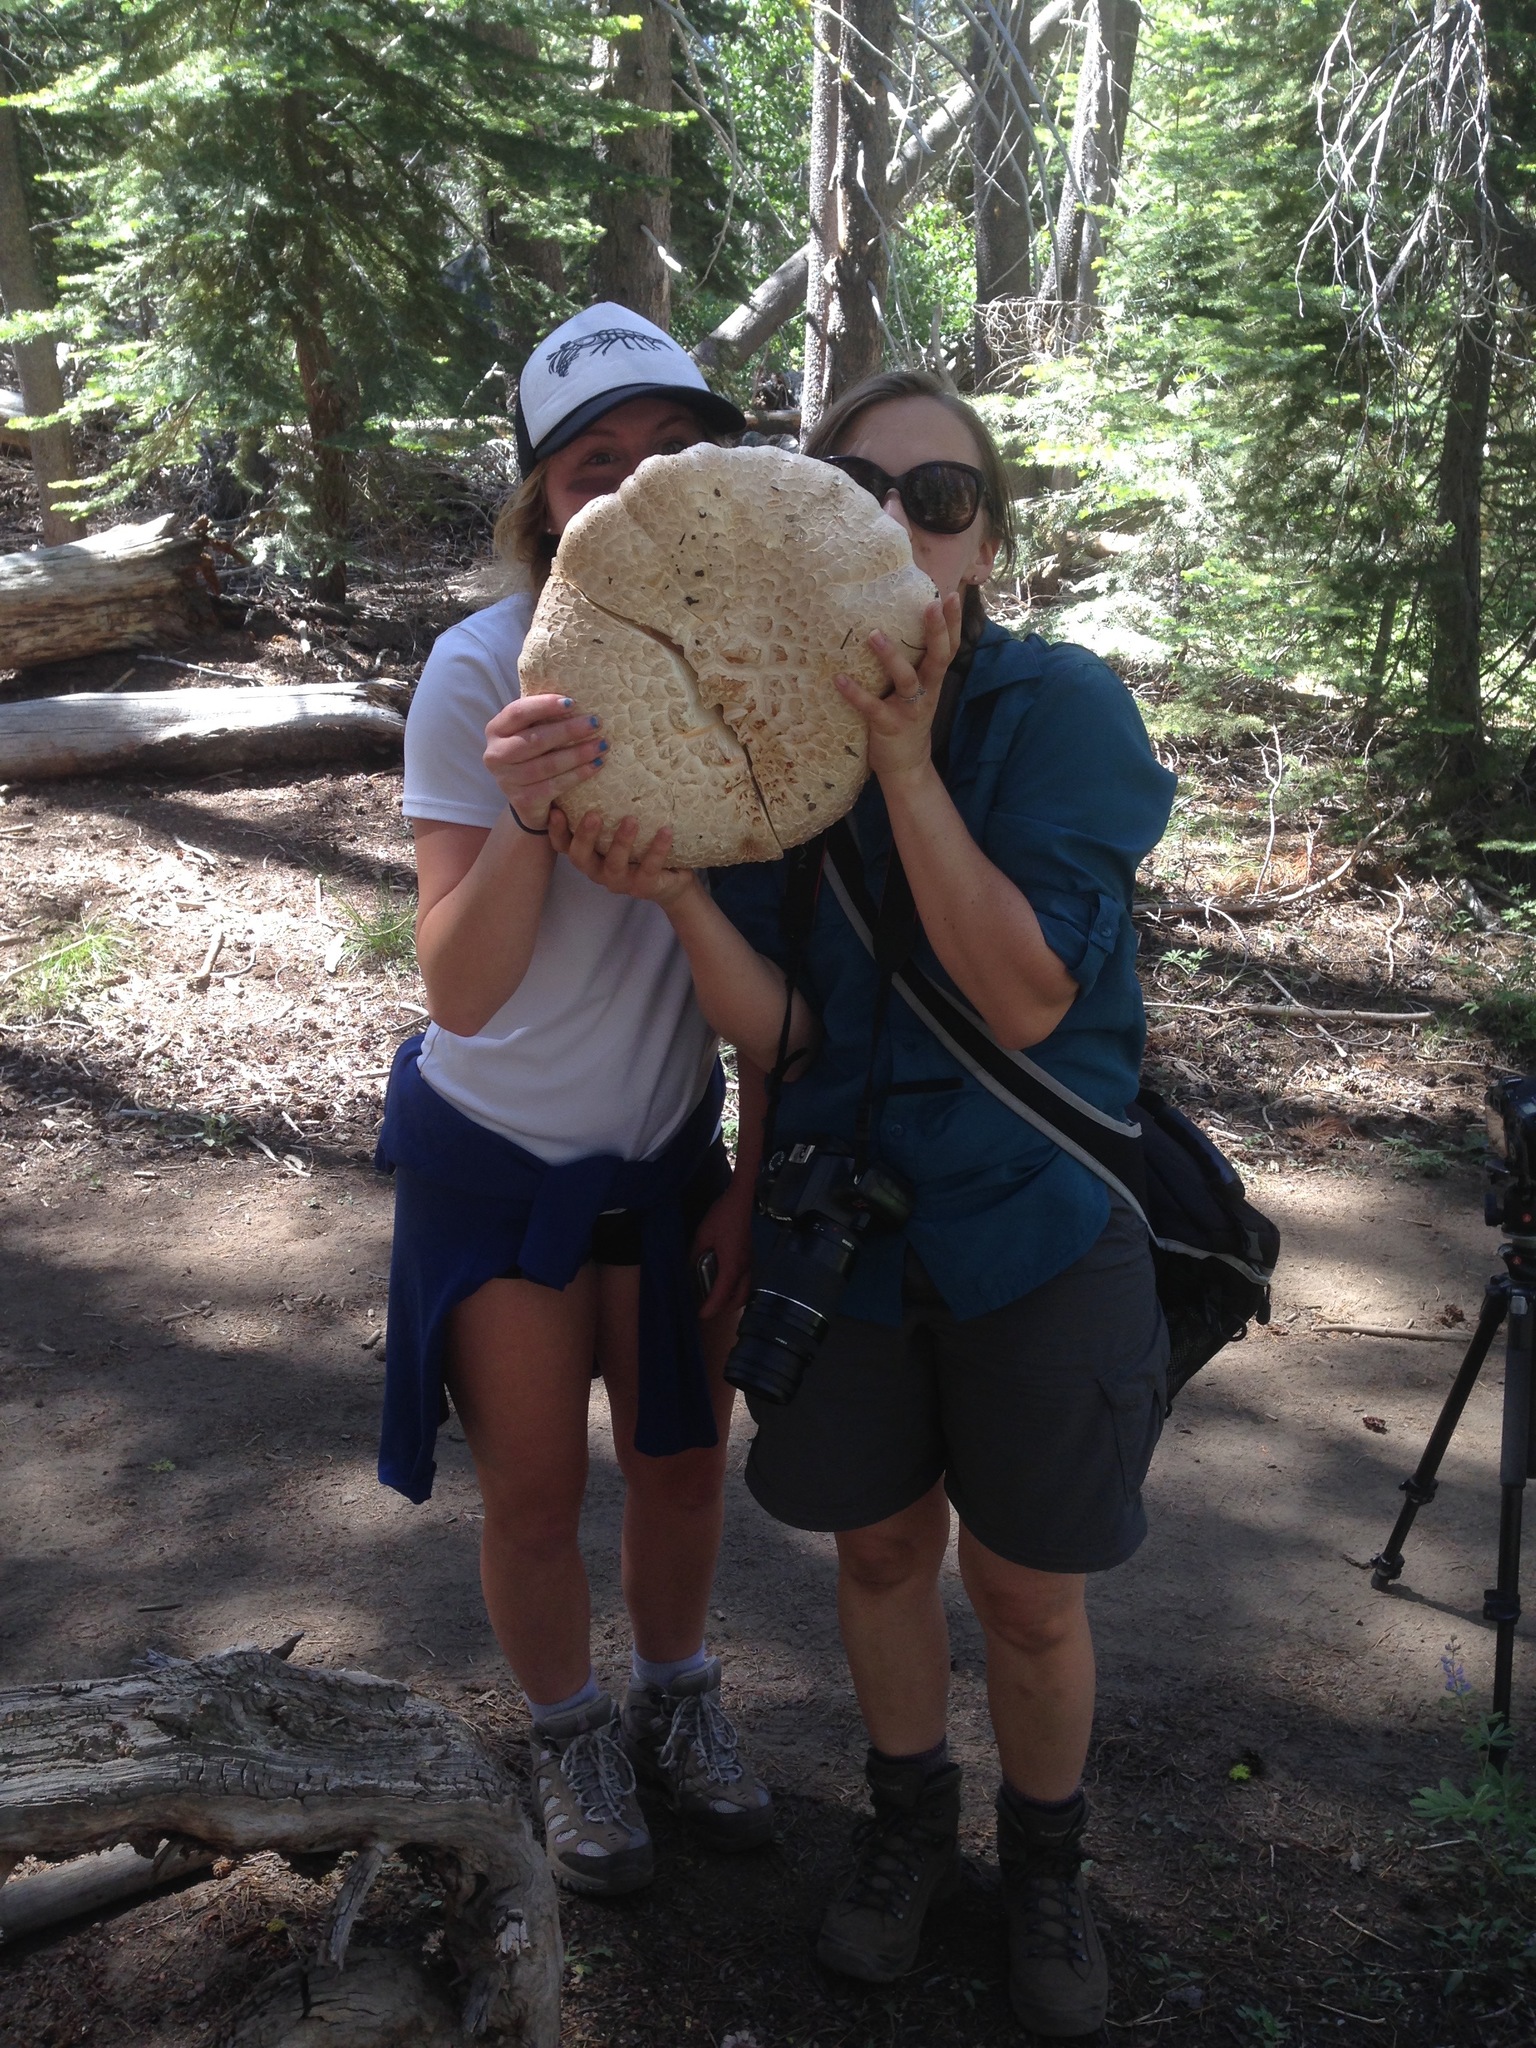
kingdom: Fungi
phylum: Basidiomycota
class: Agaricomycetes
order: Gloeophyllales
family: Gloeophyllaceae
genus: Neolentinus
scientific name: Neolentinus ponderosus
